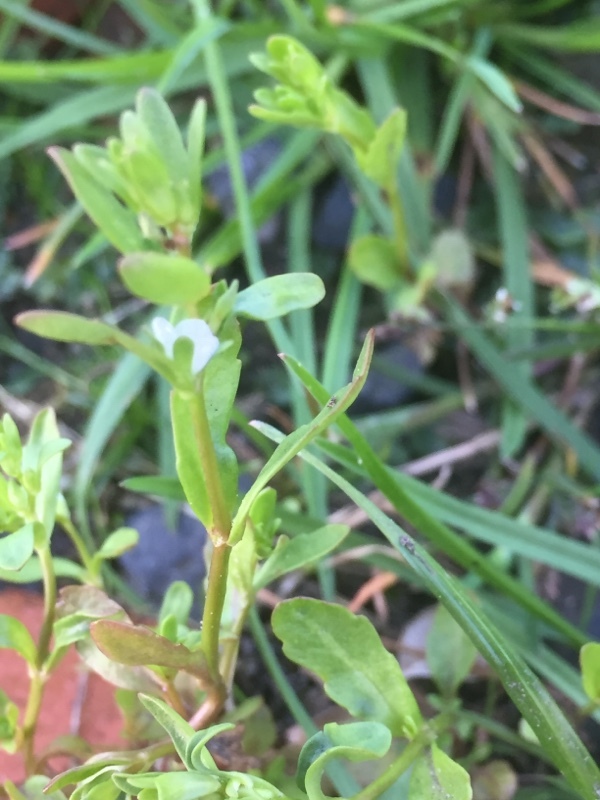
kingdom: Plantae
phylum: Tracheophyta
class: Magnoliopsida
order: Lamiales
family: Plantaginaceae
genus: Veronica
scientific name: Veronica peregrina
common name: Neckweed
